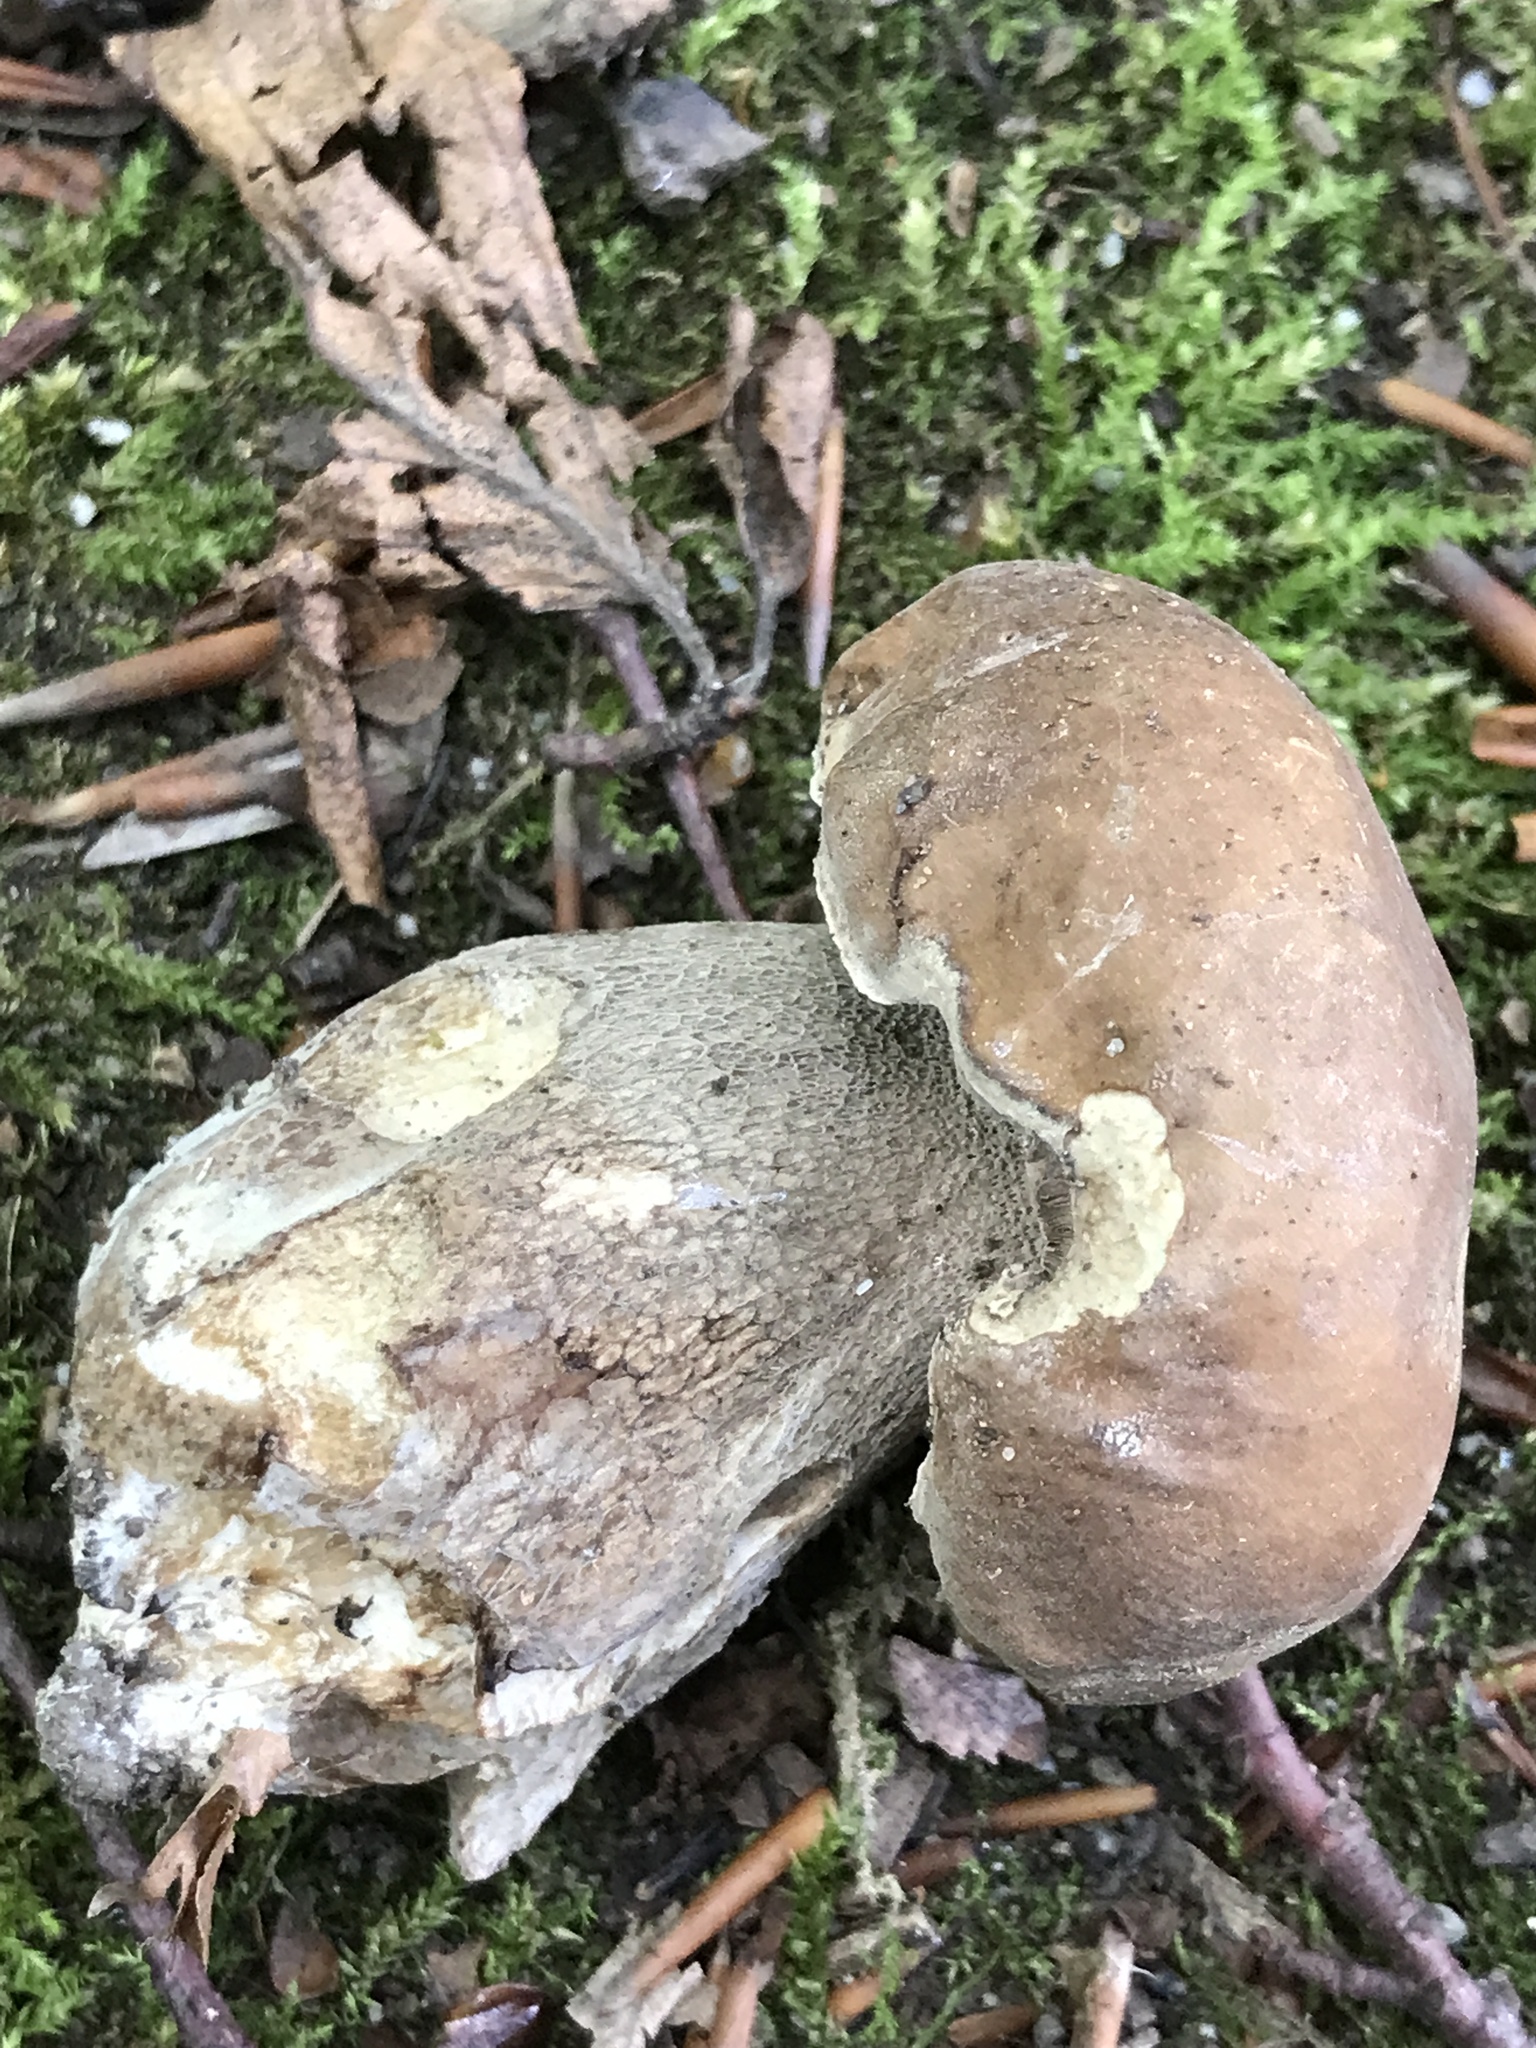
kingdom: Fungi
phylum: Basidiomycota
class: Agaricomycetes
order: Boletales
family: Boletaceae
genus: Boletus
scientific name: Boletus reticulatus
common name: Summer bolete
